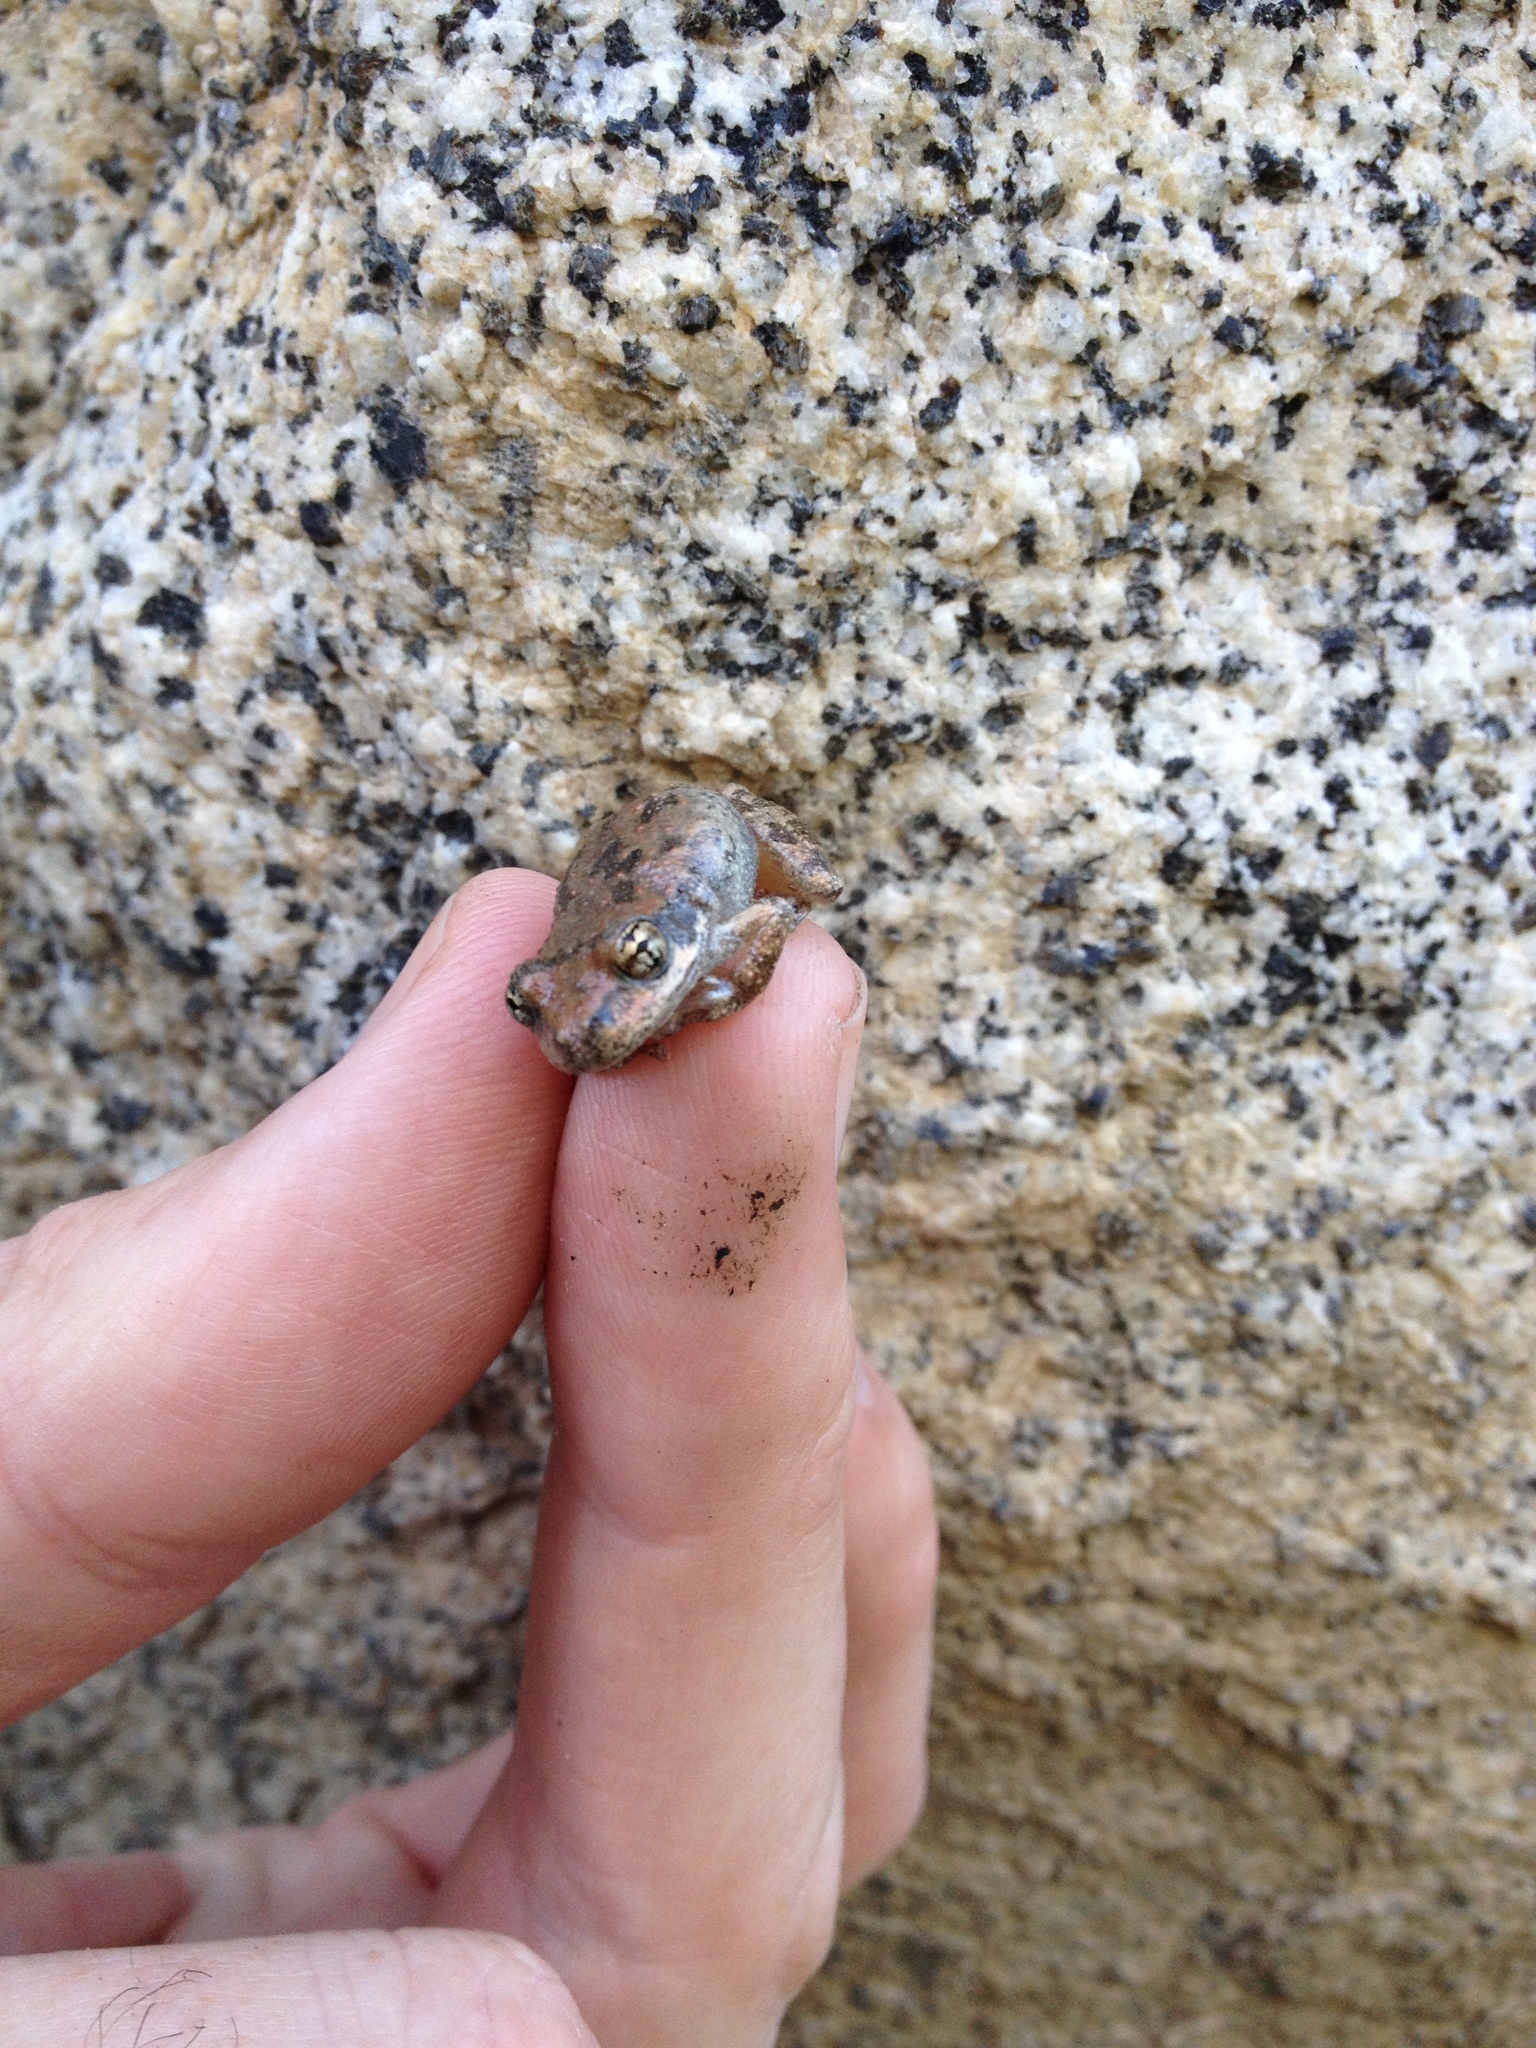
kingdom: Animalia
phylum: Chordata
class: Amphibia
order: Anura
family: Hylidae
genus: Pseudacris
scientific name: Pseudacris cadaverina
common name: California chorus frog
